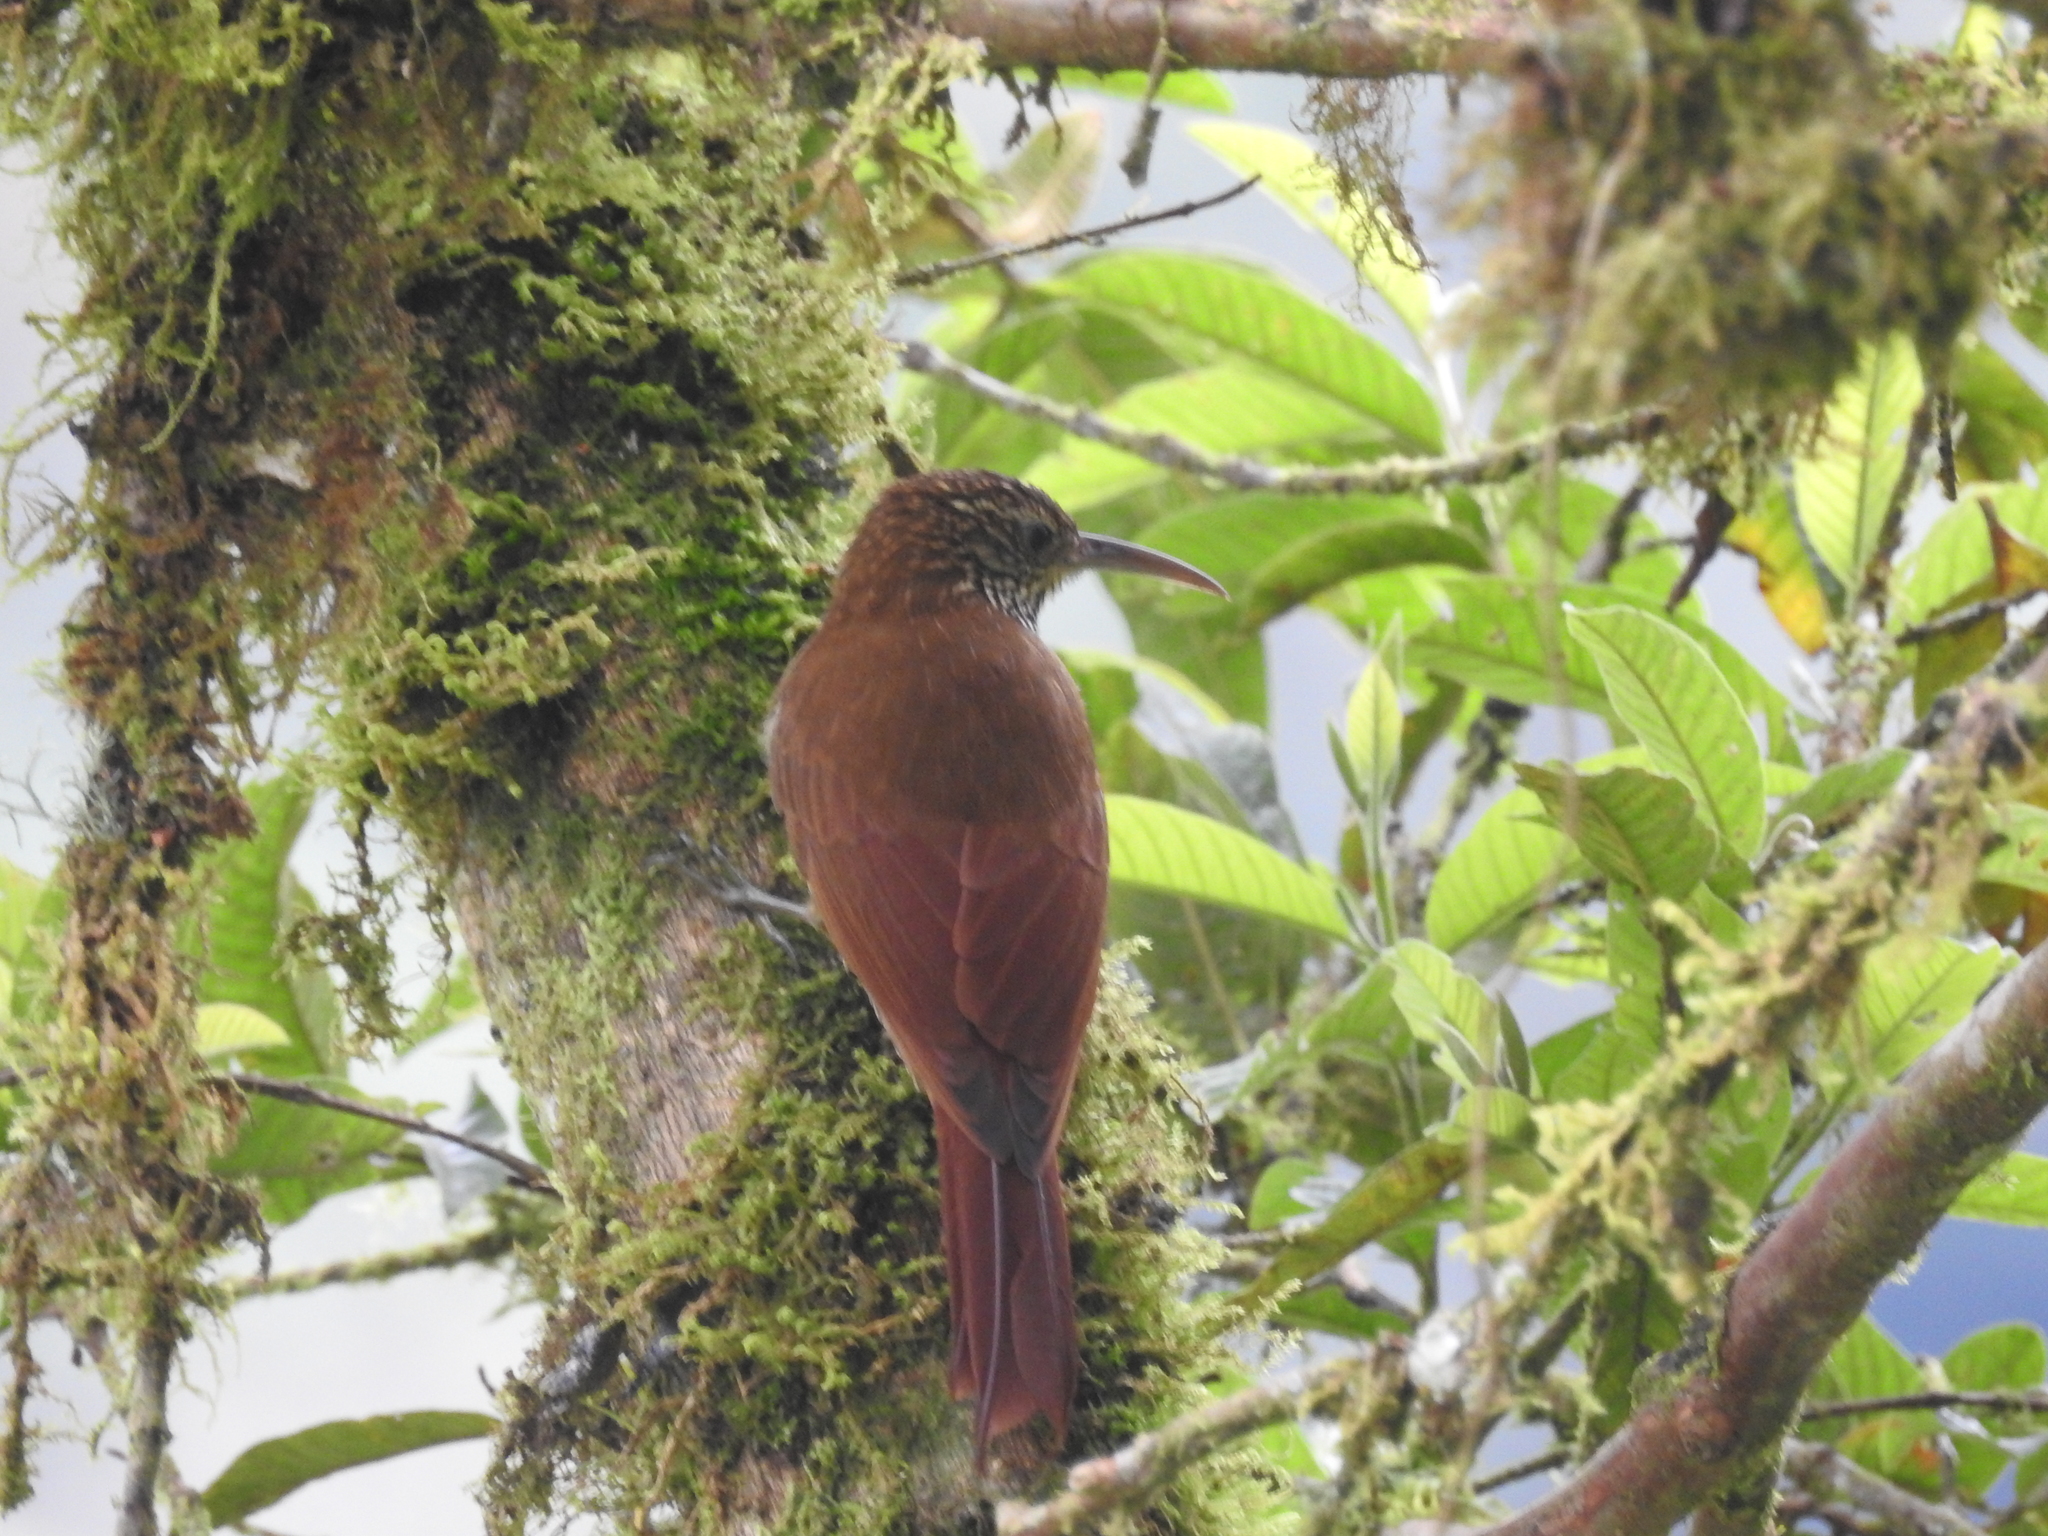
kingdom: Animalia
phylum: Chordata
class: Aves
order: Passeriformes
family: Furnariidae
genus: Lepidocolaptes
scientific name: Lepidocolaptes lacrymiger
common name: Montane woodcreeper
